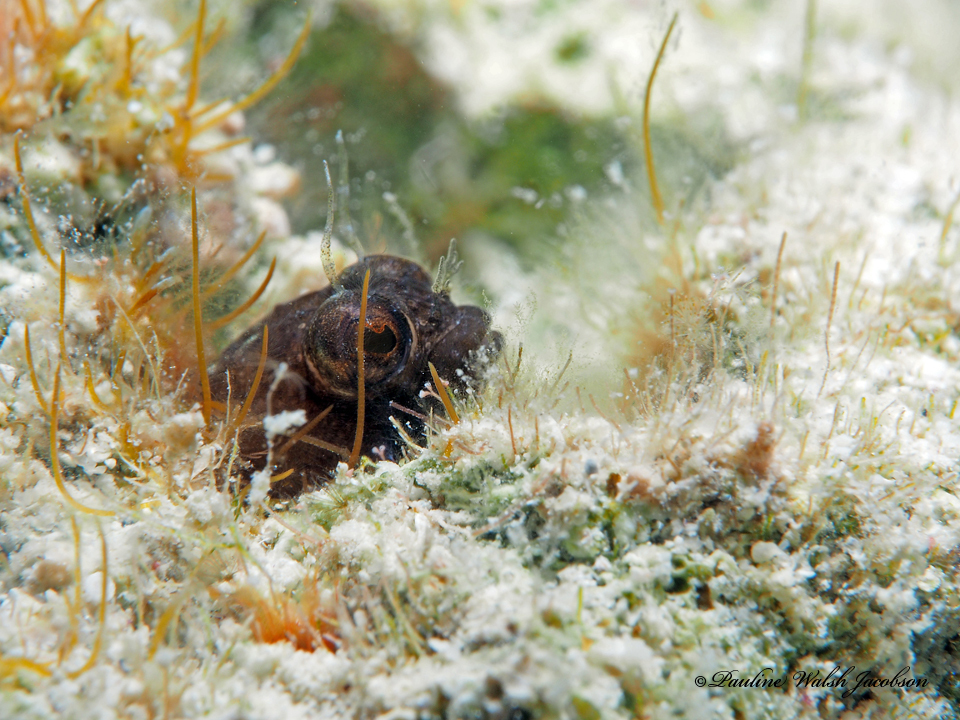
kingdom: Animalia
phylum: Chordata
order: Perciformes
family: Chaenopsidae
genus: Emblemaria
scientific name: Emblemaria pandionis
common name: Sailfin blenny
